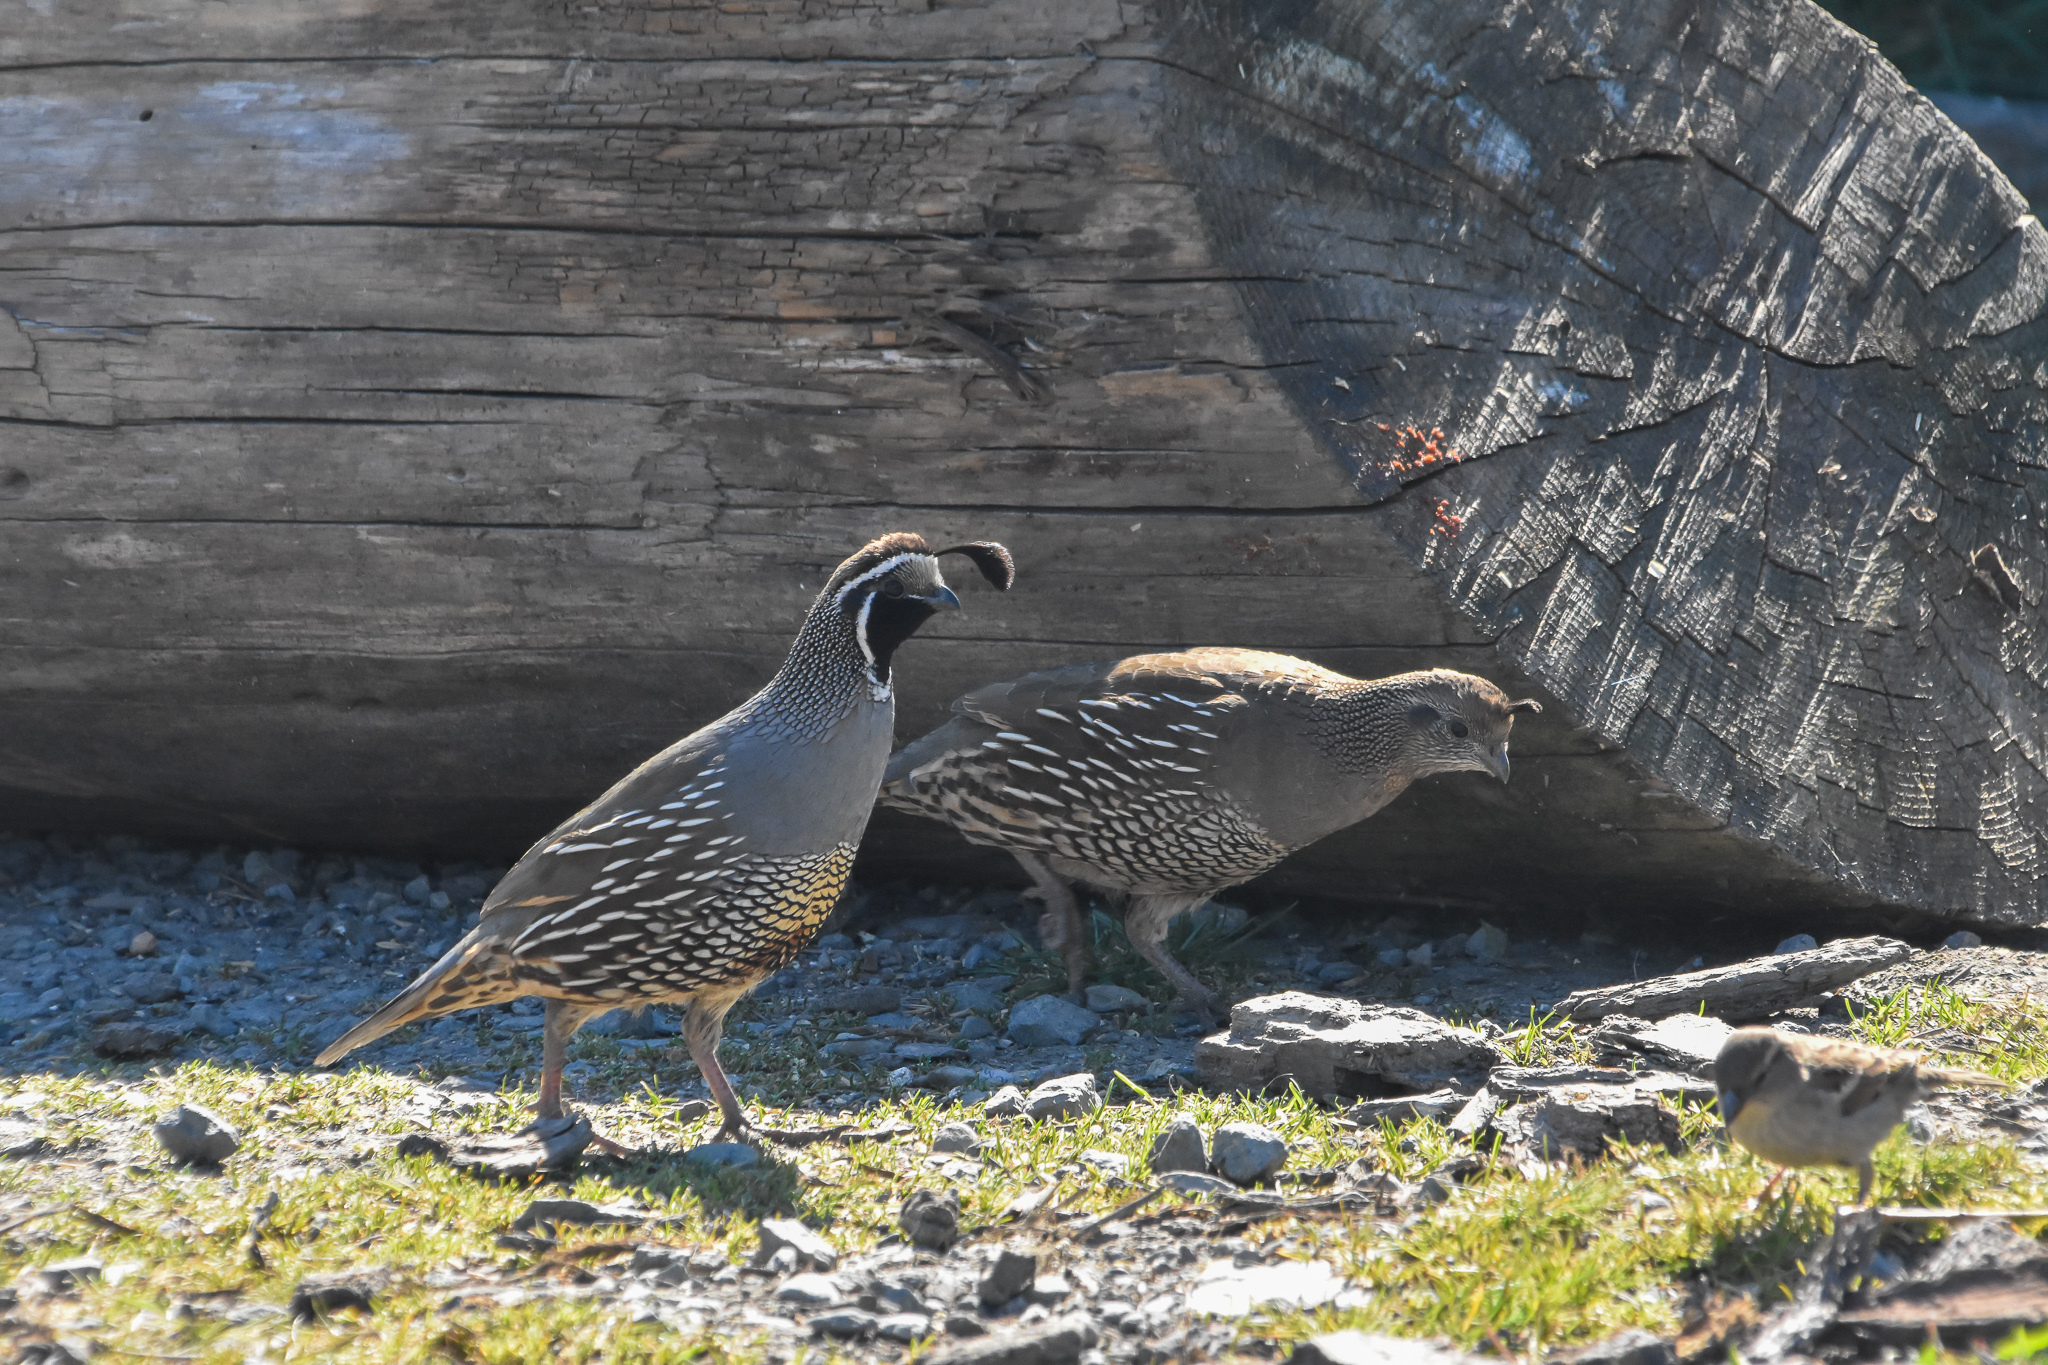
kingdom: Animalia
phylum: Chordata
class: Aves
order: Galliformes
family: Odontophoridae
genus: Callipepla
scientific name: Callipepla californica
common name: California quail
